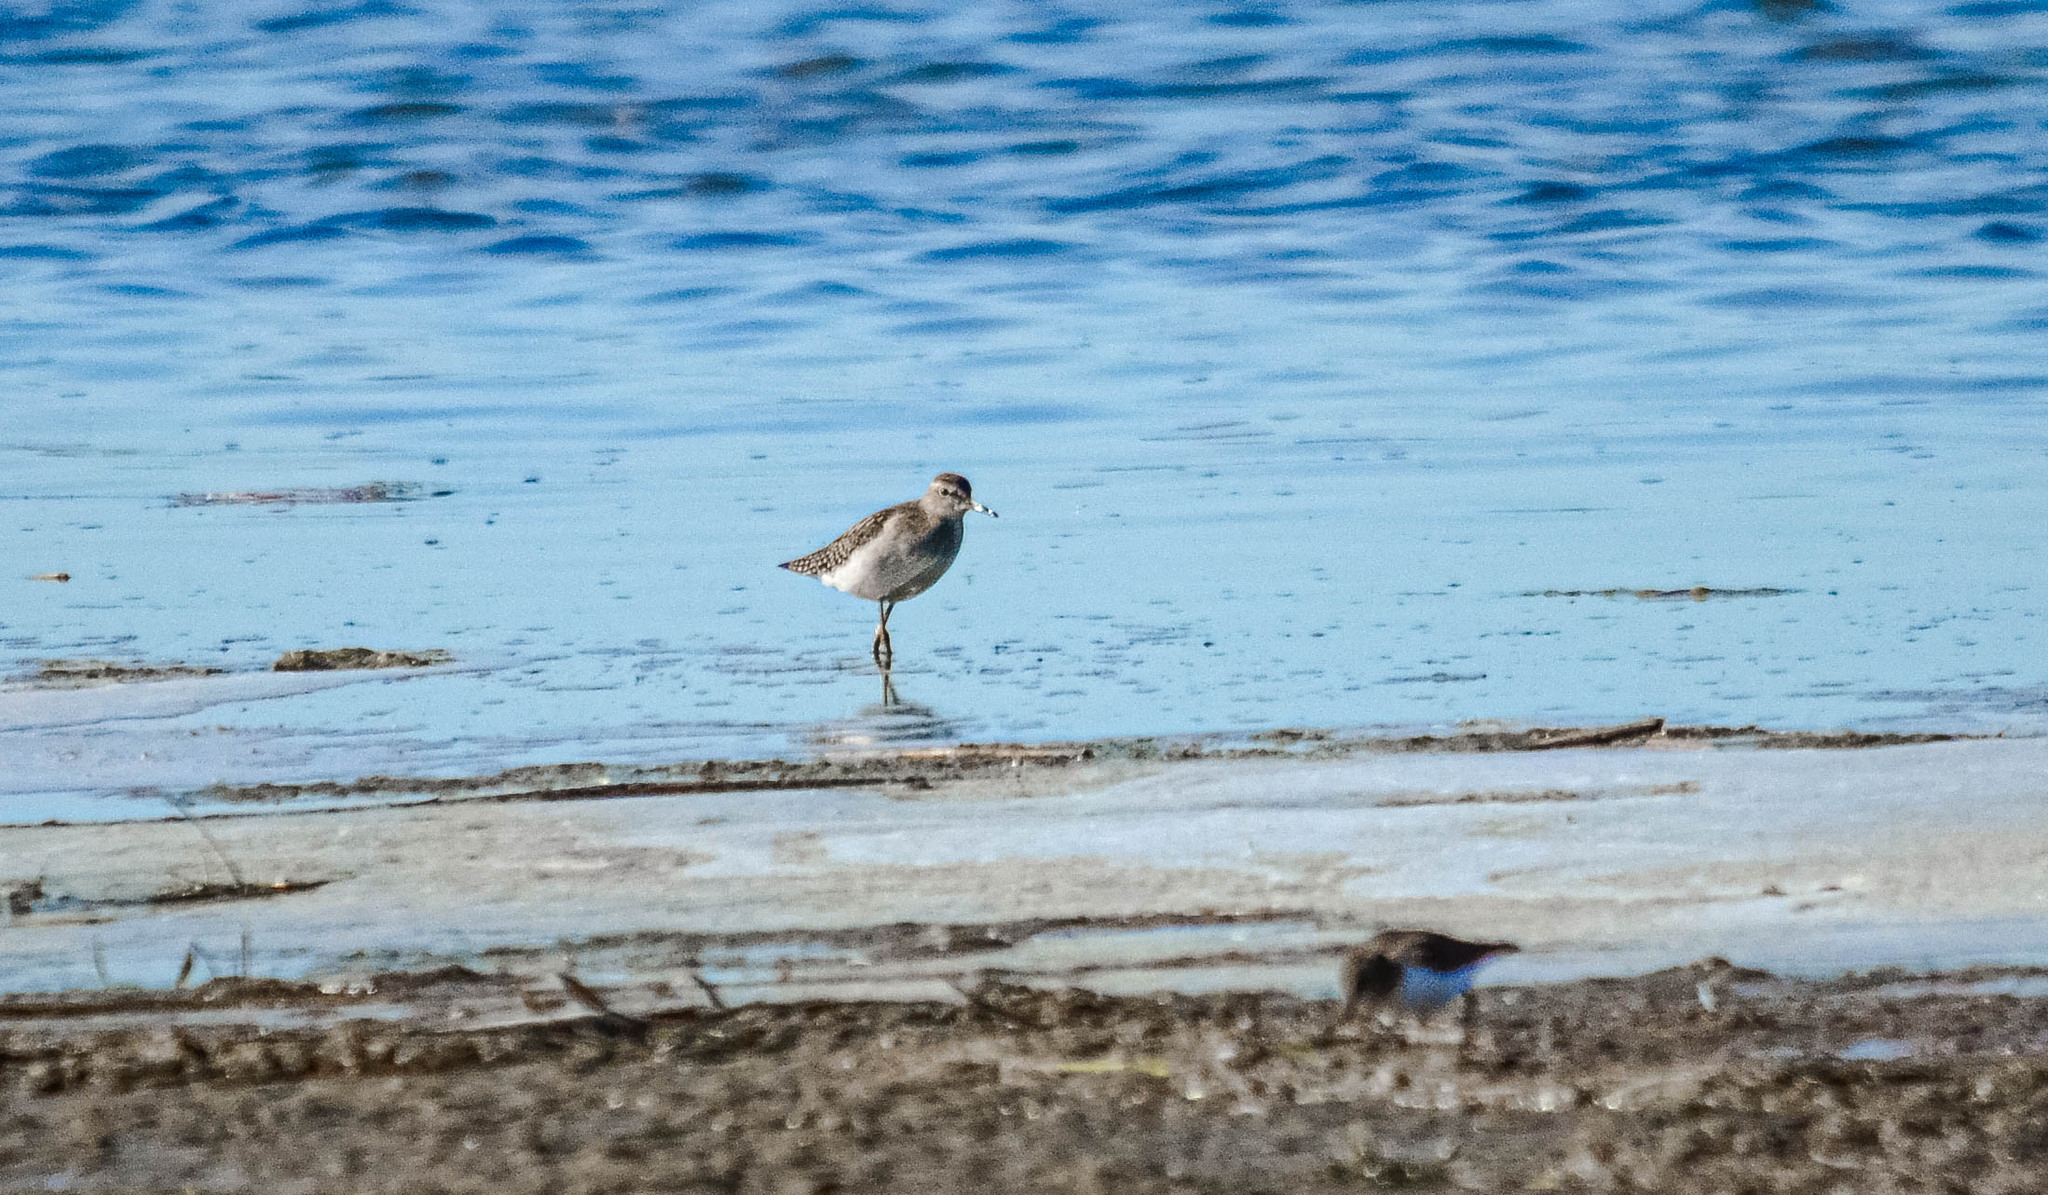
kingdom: Animalia
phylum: Chordata
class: Aves
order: Charadriiformes
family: Scolopacidae
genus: Tringa
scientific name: Tringa glareola
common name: Wood sandpiper
